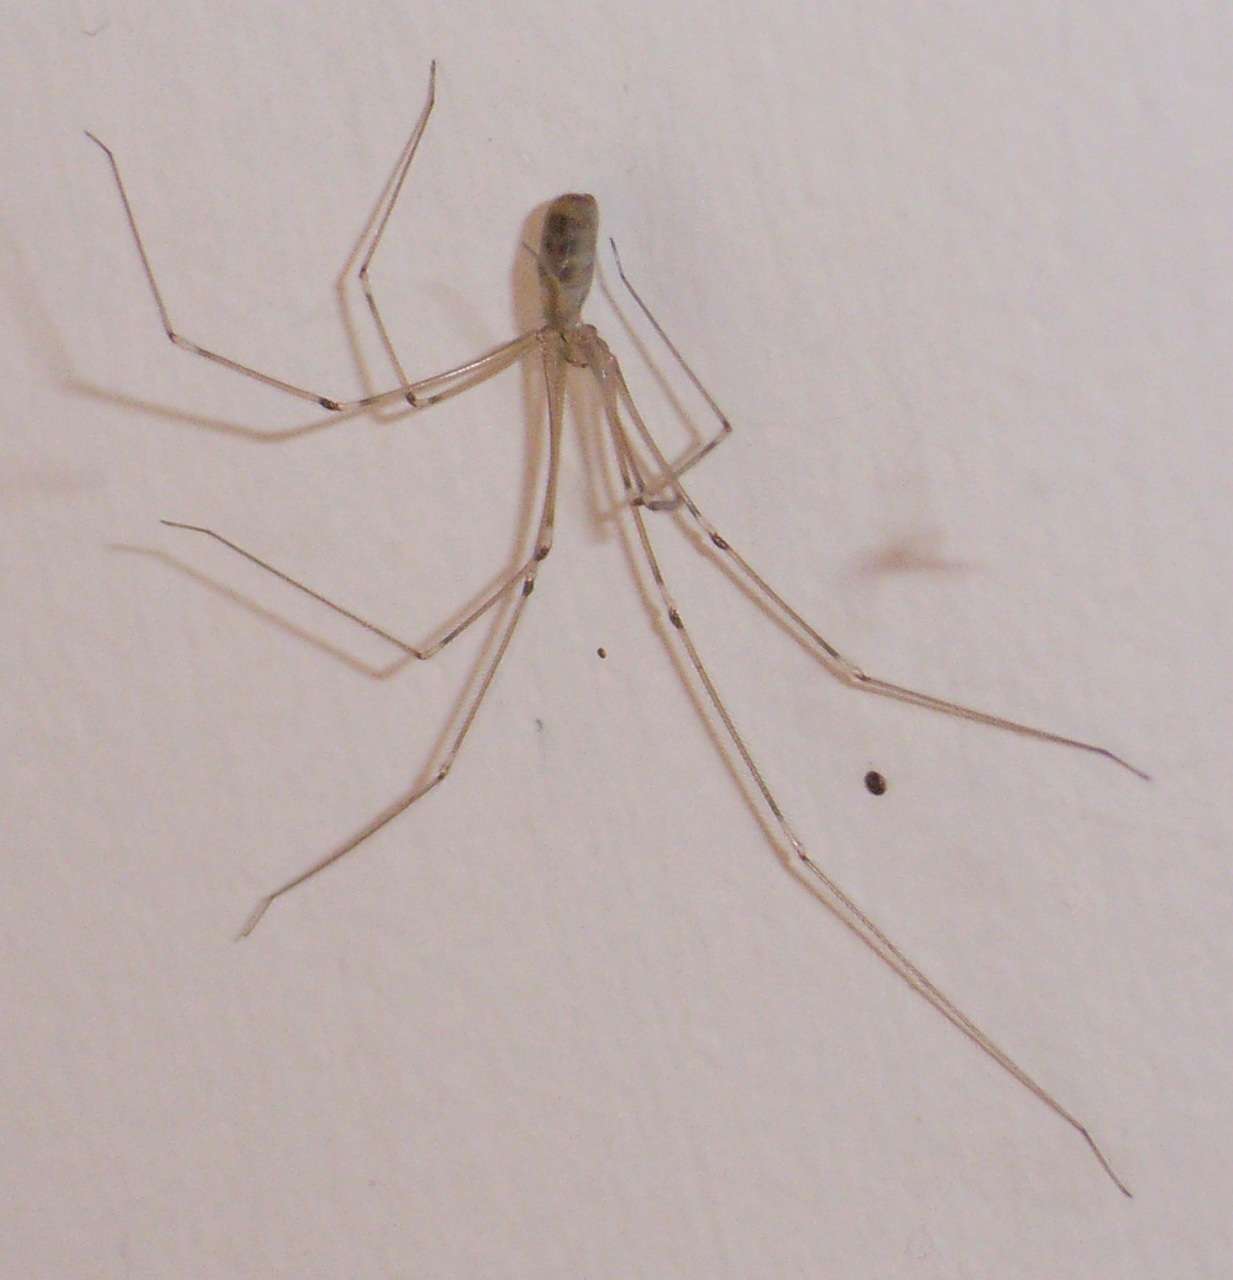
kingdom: Animalia
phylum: Arthropoda
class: Arachnida
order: Araneae
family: Pholcidae
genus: Pholcus
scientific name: Pholcus phalangioides
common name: Longbodied cellar spider
